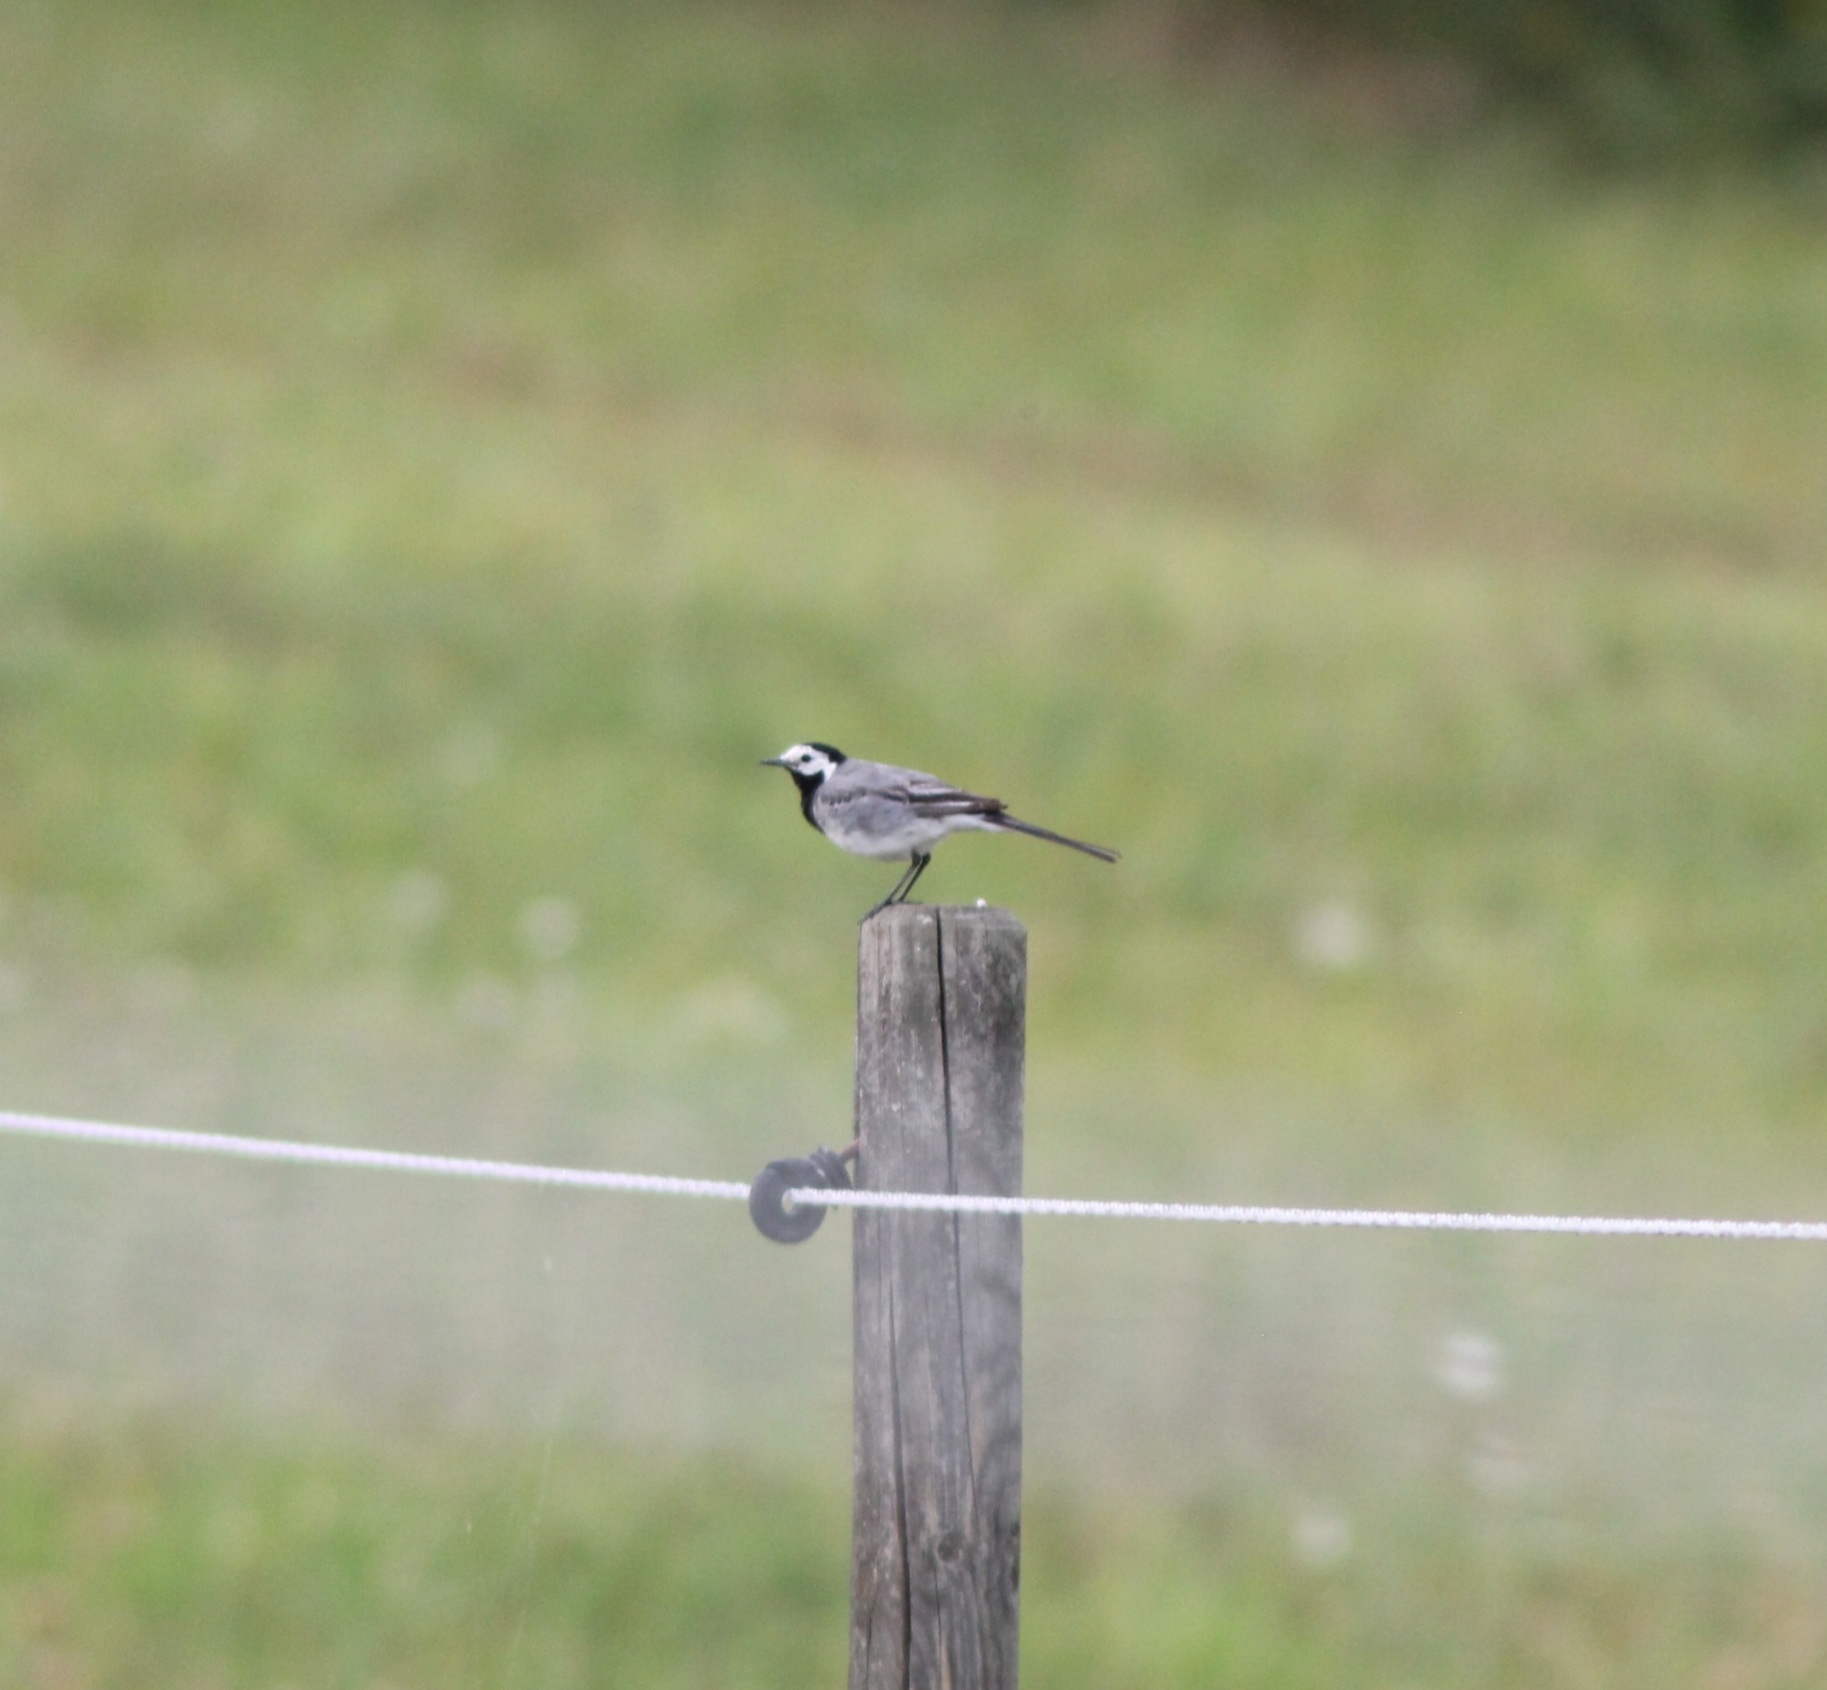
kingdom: Animalia
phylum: Chordata
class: Aves
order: Passeriformes
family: Motacillidae
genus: Motacilla
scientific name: Motacilla alba
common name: White wagtail
